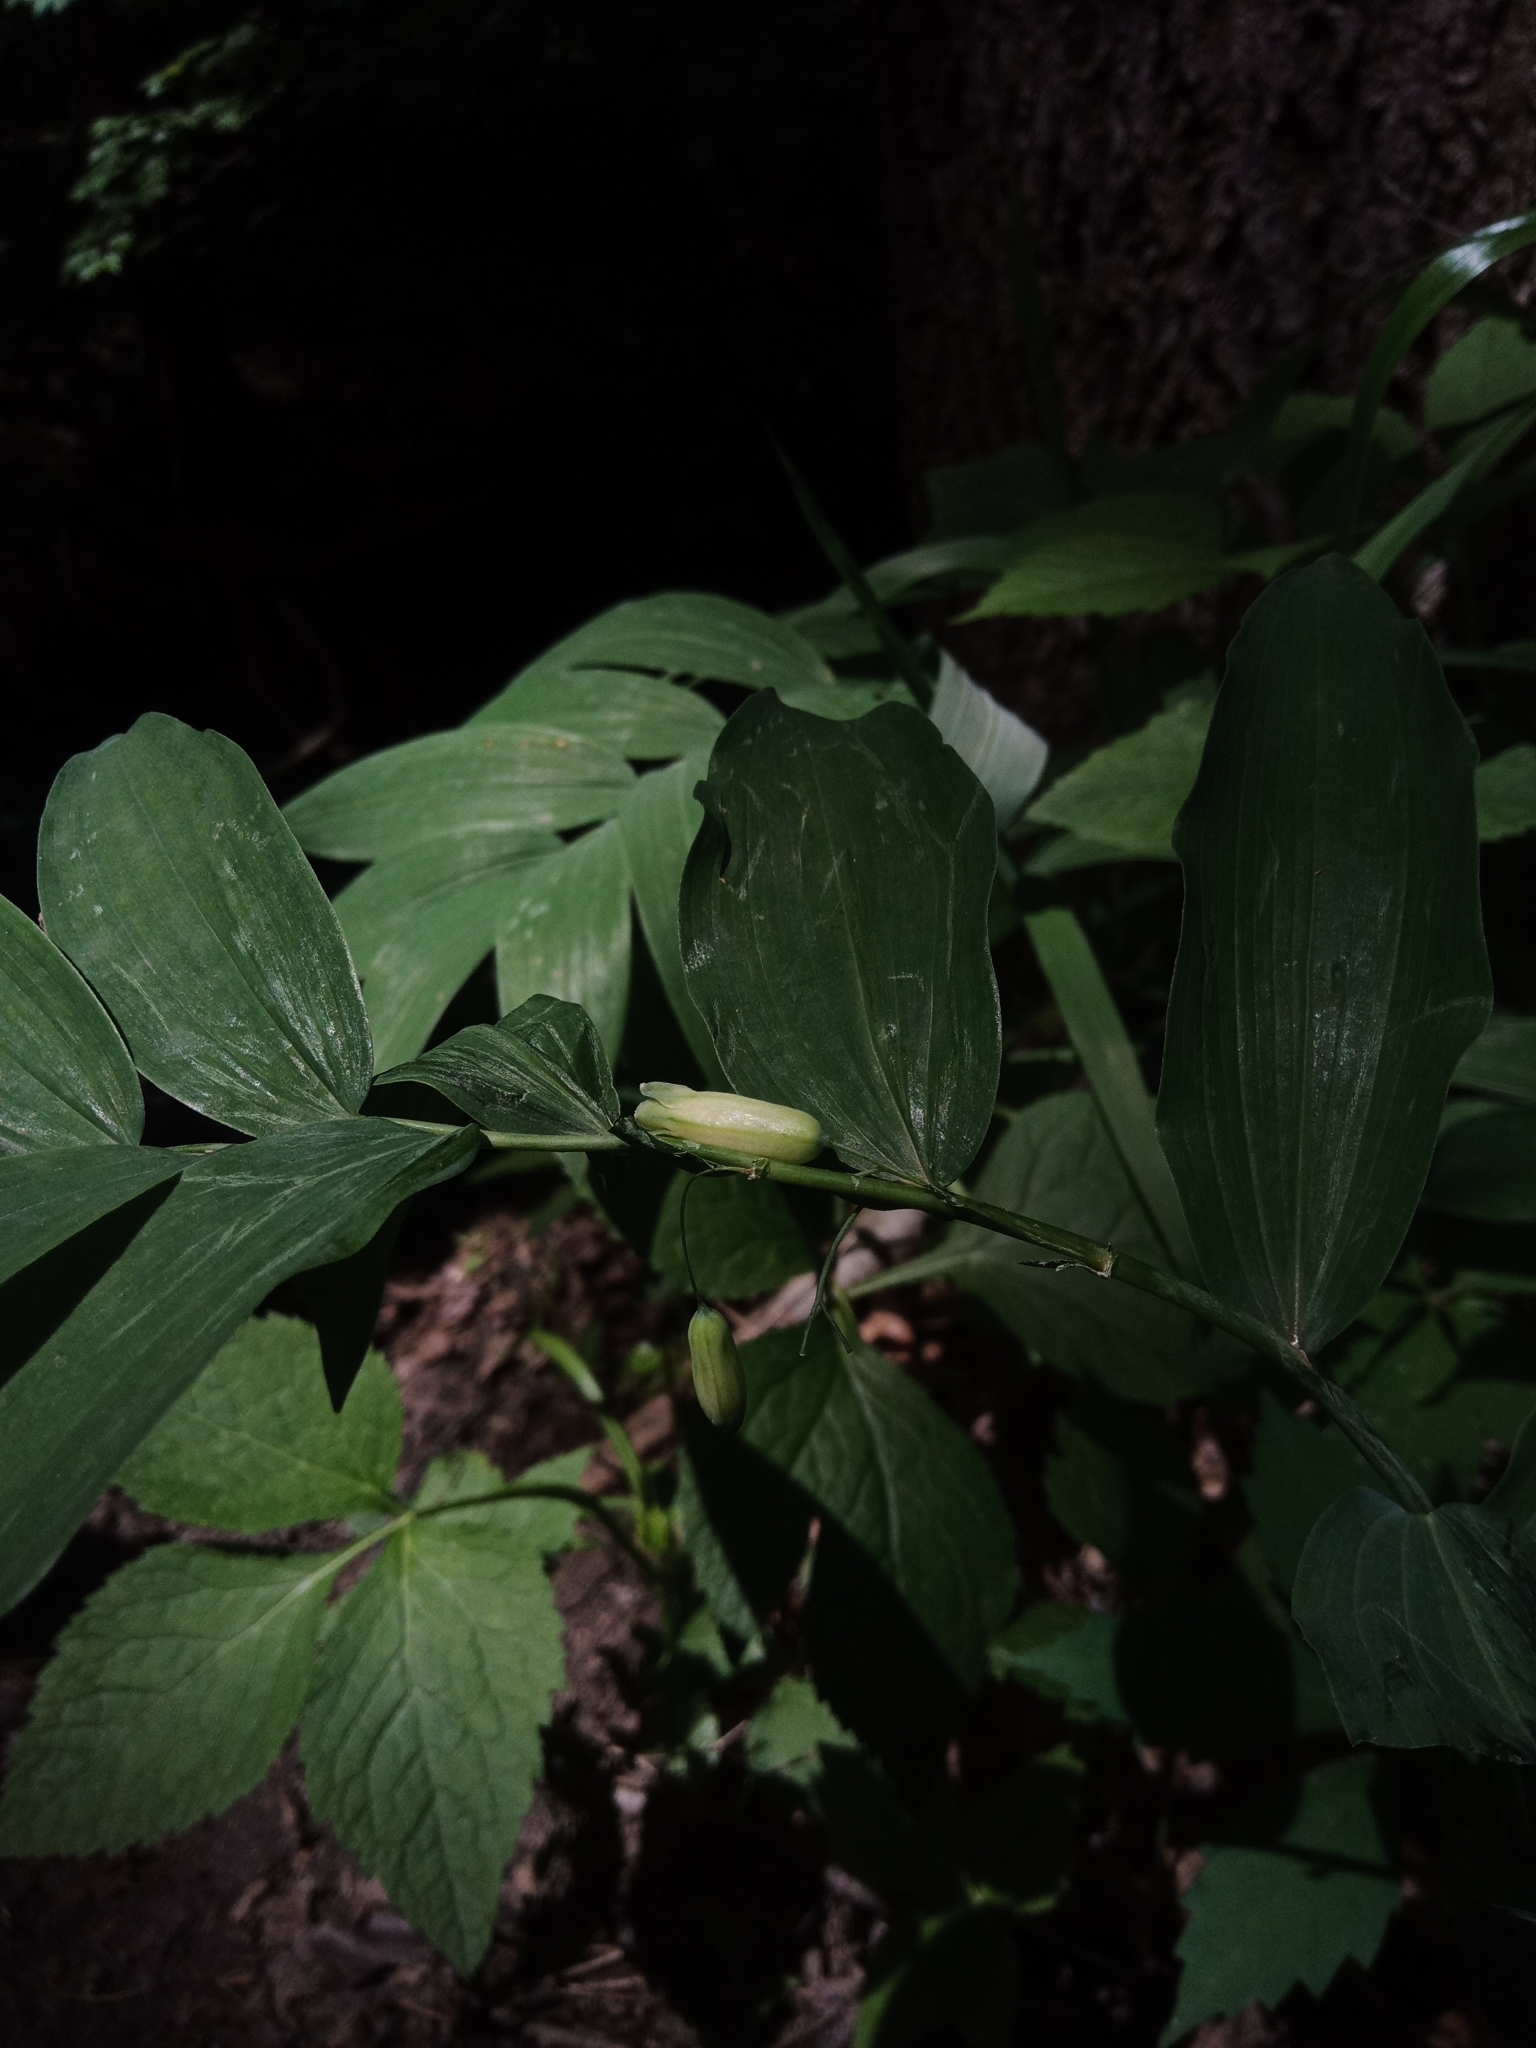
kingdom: Plantae
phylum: Tracheophyta
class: Liliopsida
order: Asparagales
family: Asparagaceae
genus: Polygonatum
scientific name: Polygonatum biflorum
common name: American solomon's-seal
